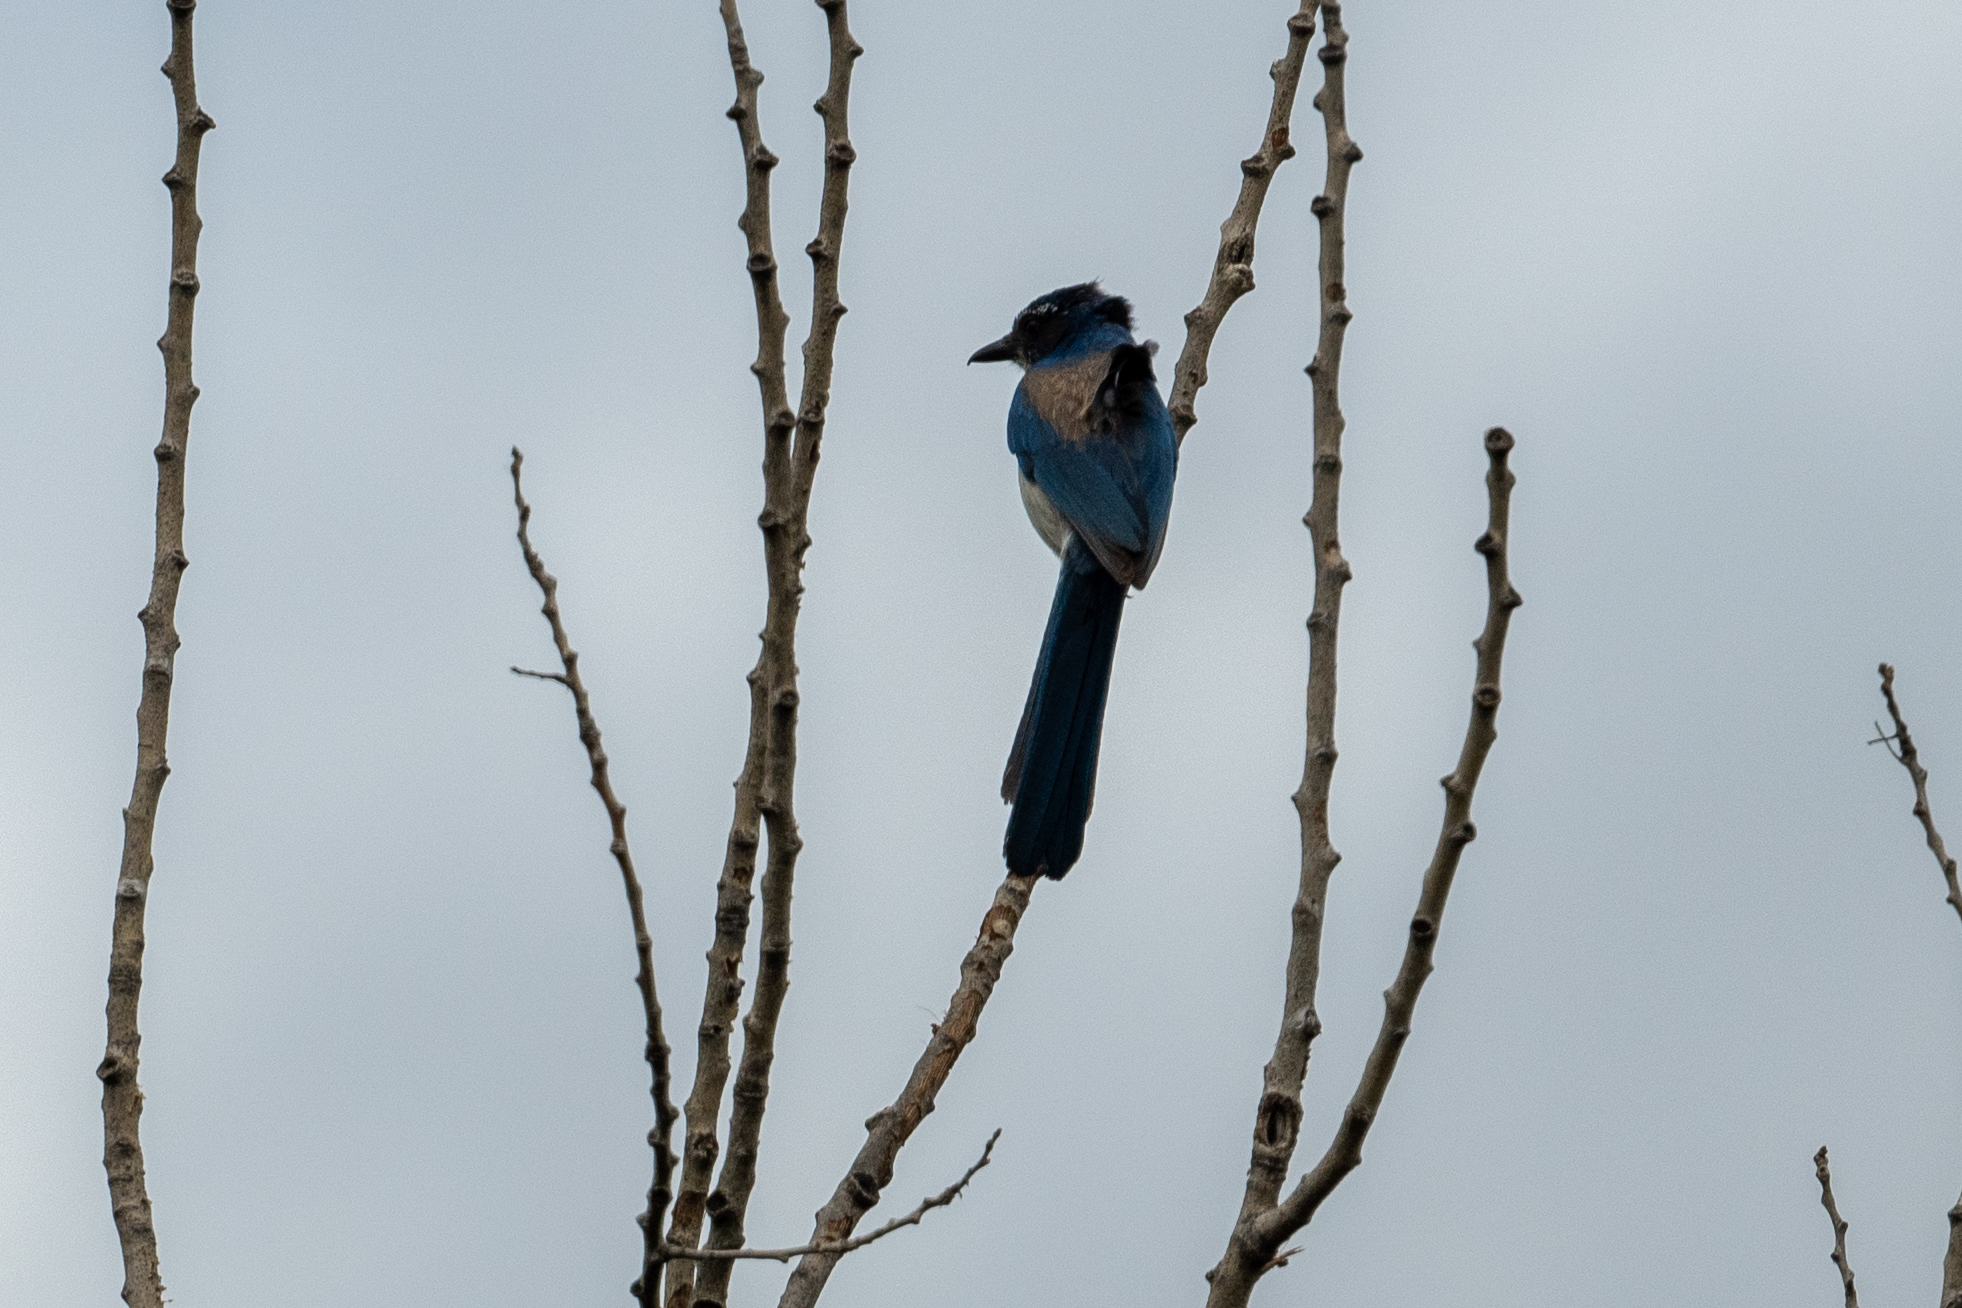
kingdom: Animalia
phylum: Chordata
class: Aves
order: Passeriformes
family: Corvidae
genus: Aphelocoma
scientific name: Aphelocoma californica
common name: California scrub-jay
